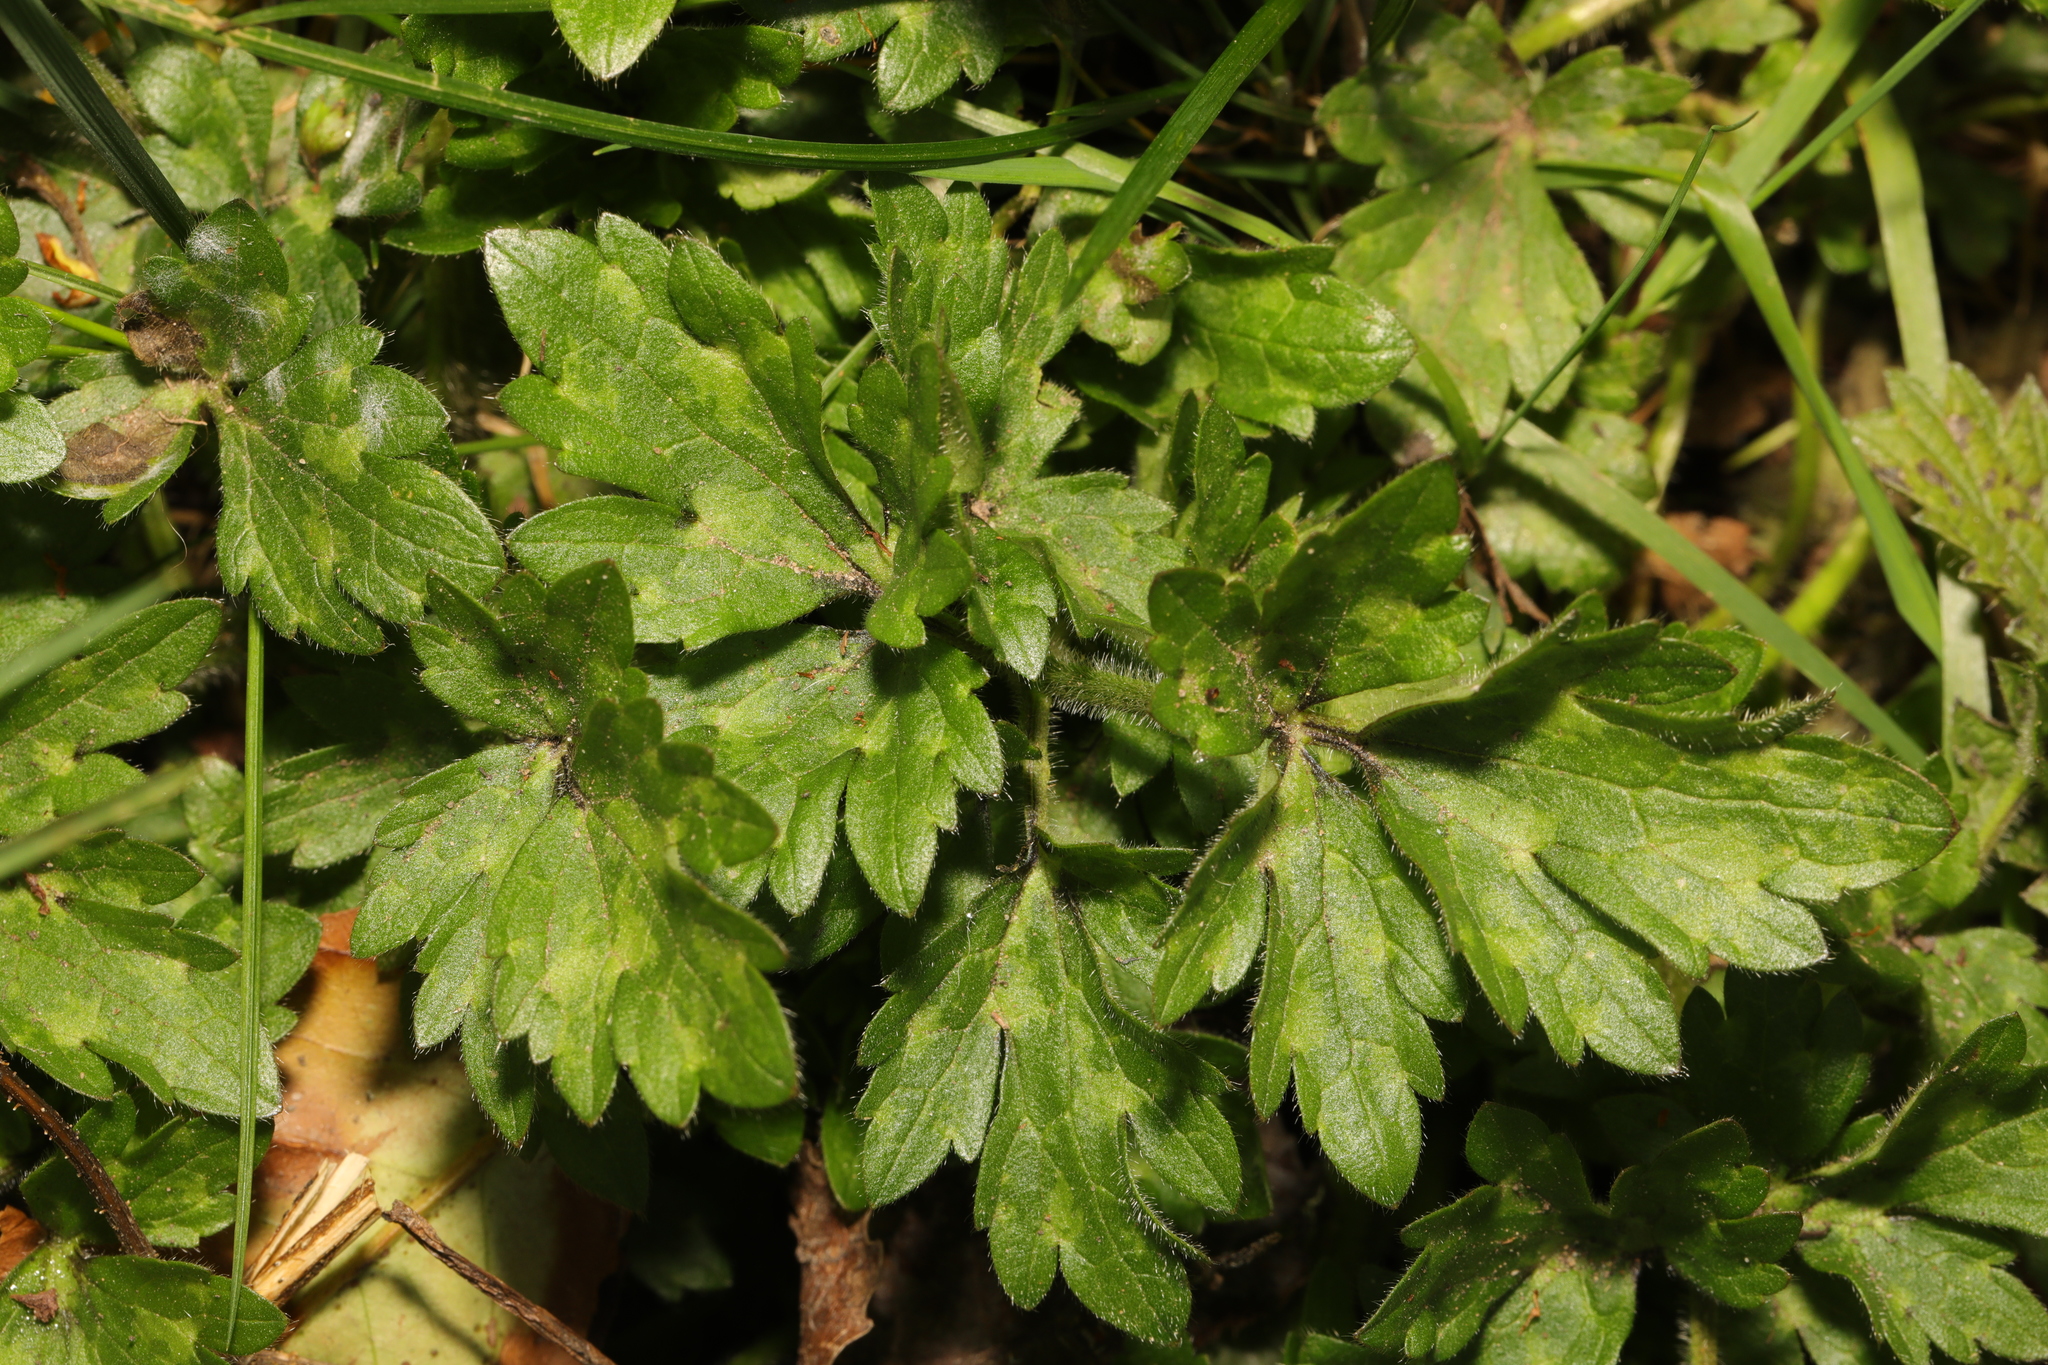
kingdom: Plantae
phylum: Tracheophyta
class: Magnoliopsida
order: Ranunculales
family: Ranunculaceae
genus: Ranunculus
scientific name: Ranunculus repens
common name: Creeping buttercup
